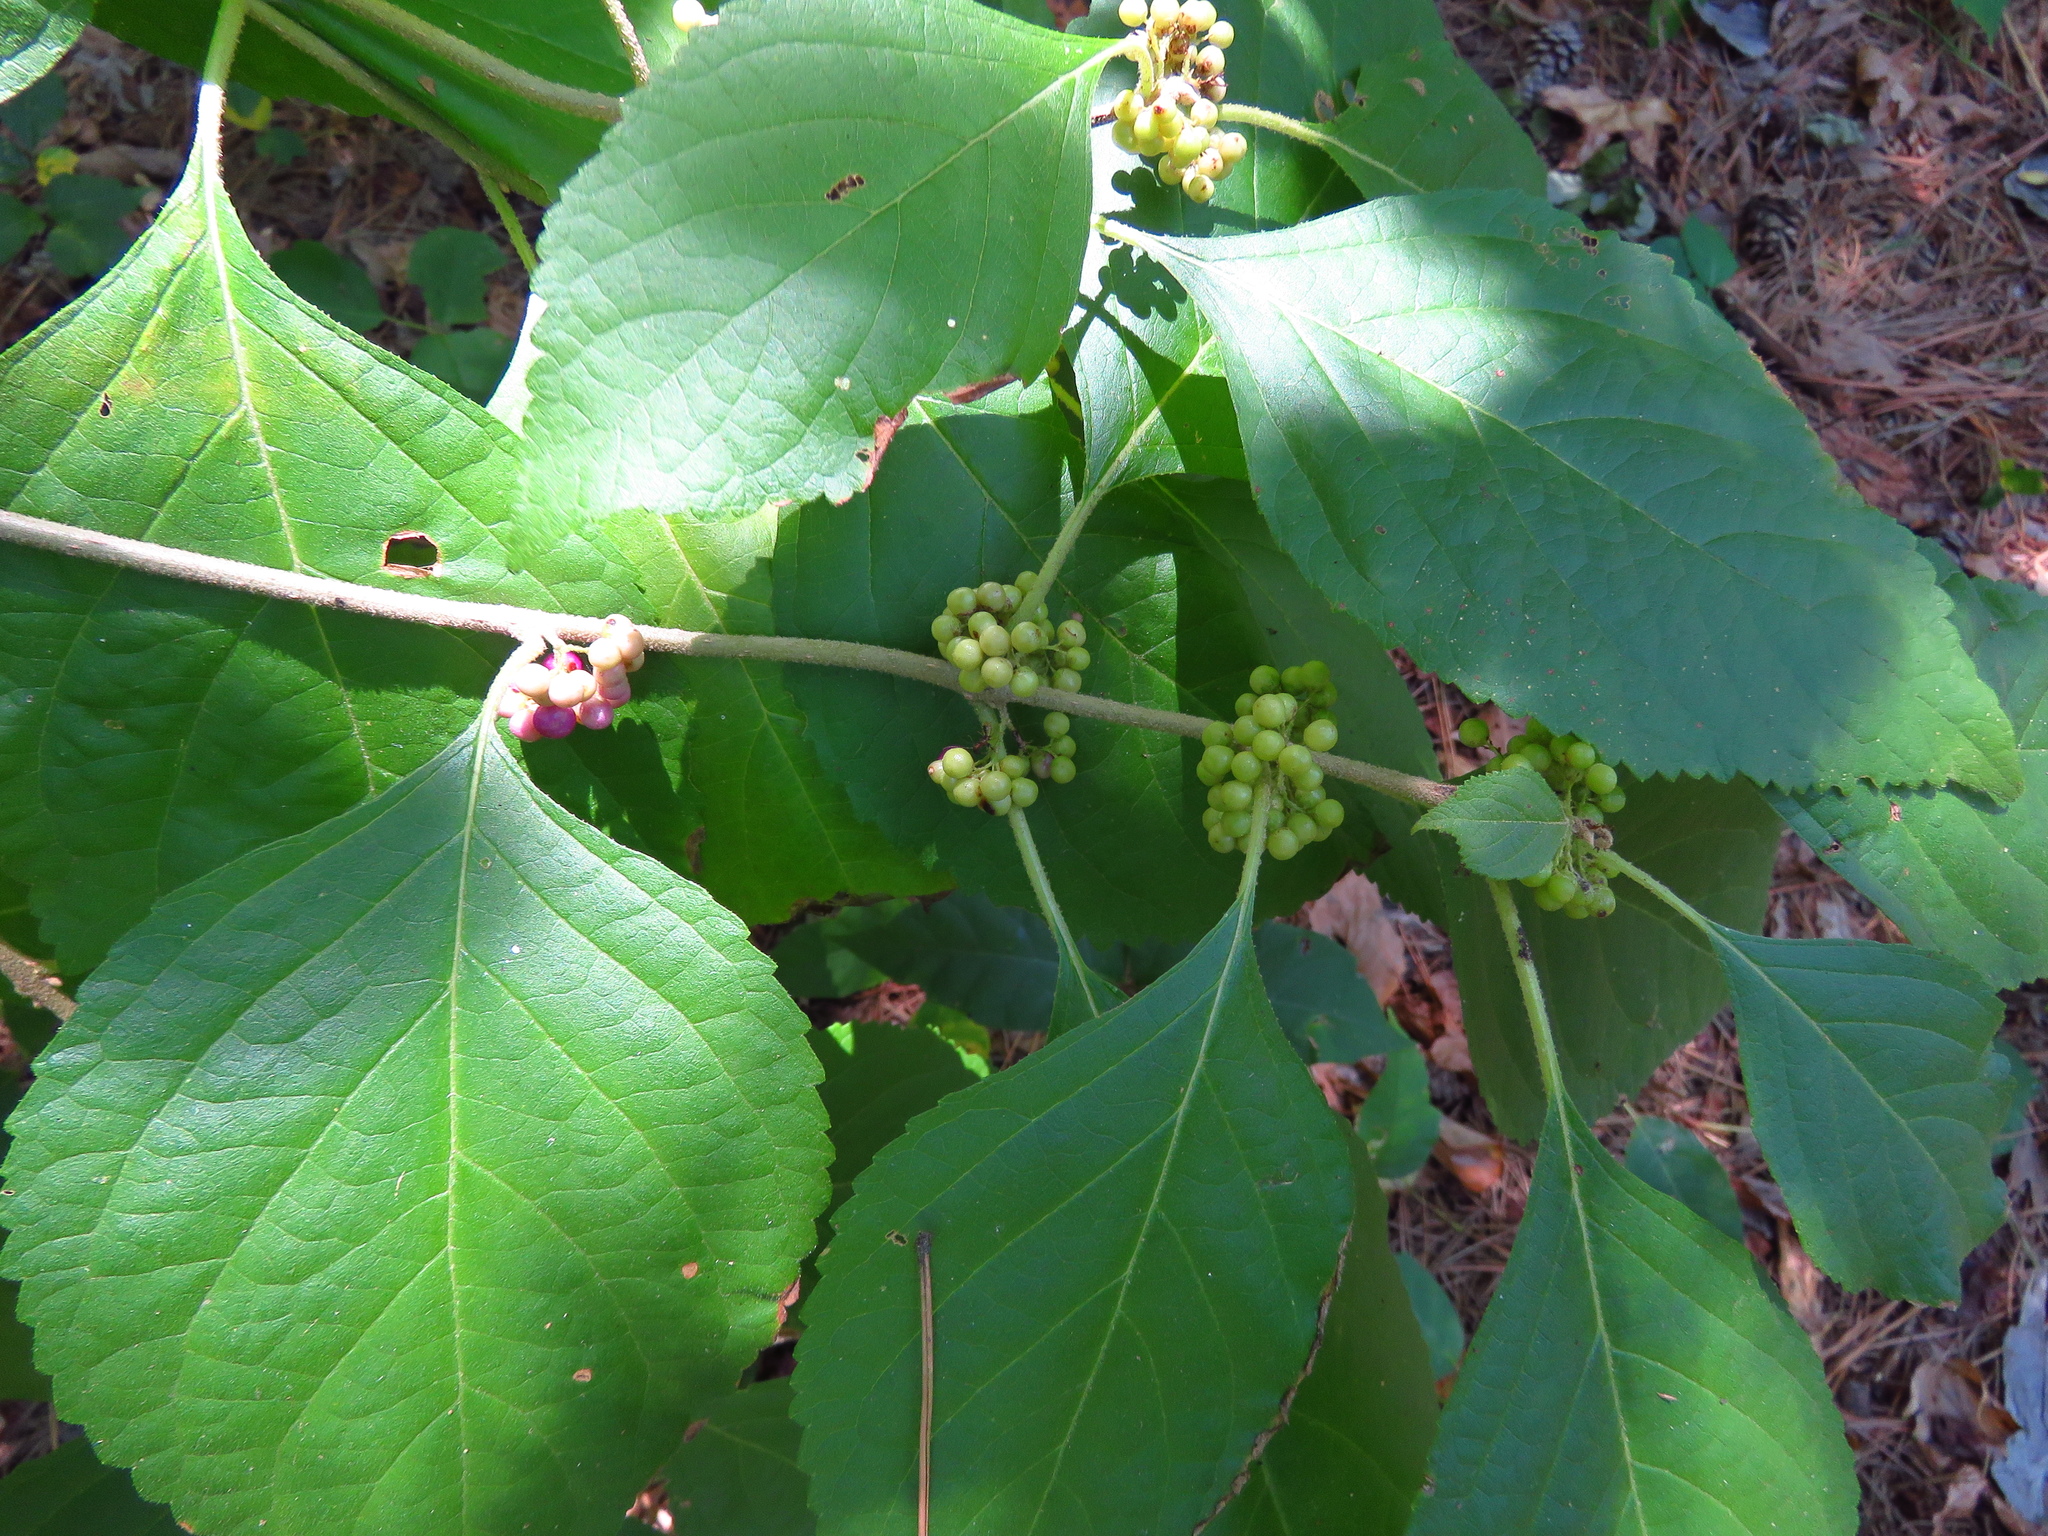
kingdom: Plantae
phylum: Tracheophyta
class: Magnoliopsida
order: Lamiales
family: Lamiaceae
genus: Callicarpa
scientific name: Callicarpa americana
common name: American beautyberry
